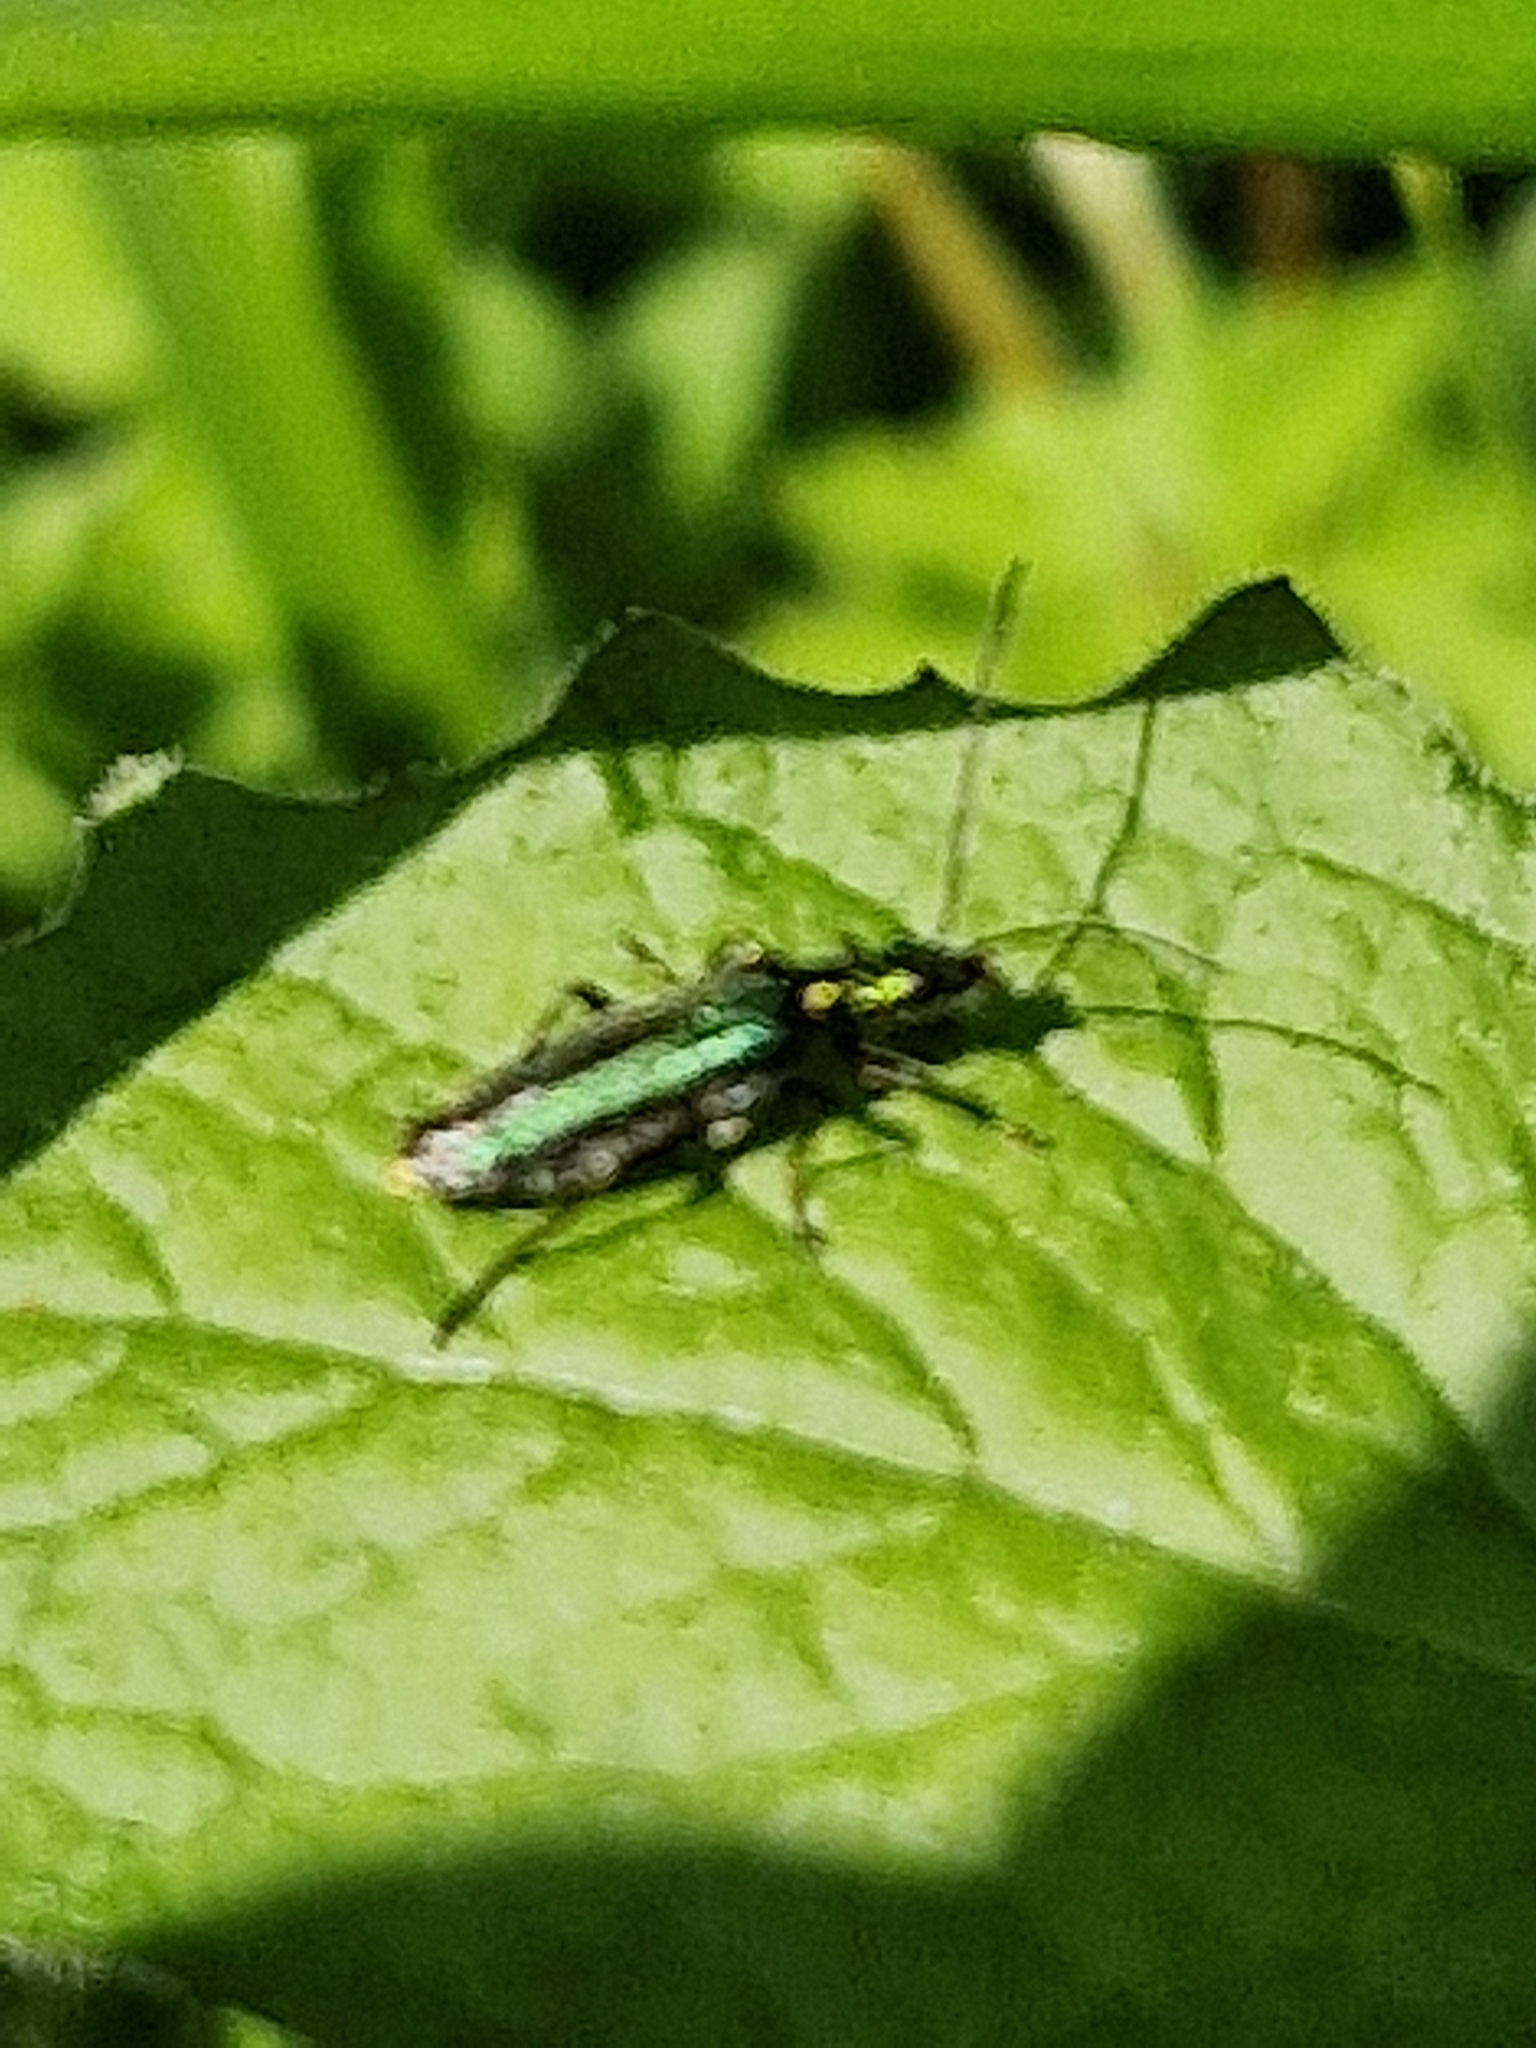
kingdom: Animalia
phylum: Arthropoda
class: Insecta
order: Coleoptera
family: Oedemeridae
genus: Oedemera
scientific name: Oedemera nobilis
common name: Swollen-thighed beetle
